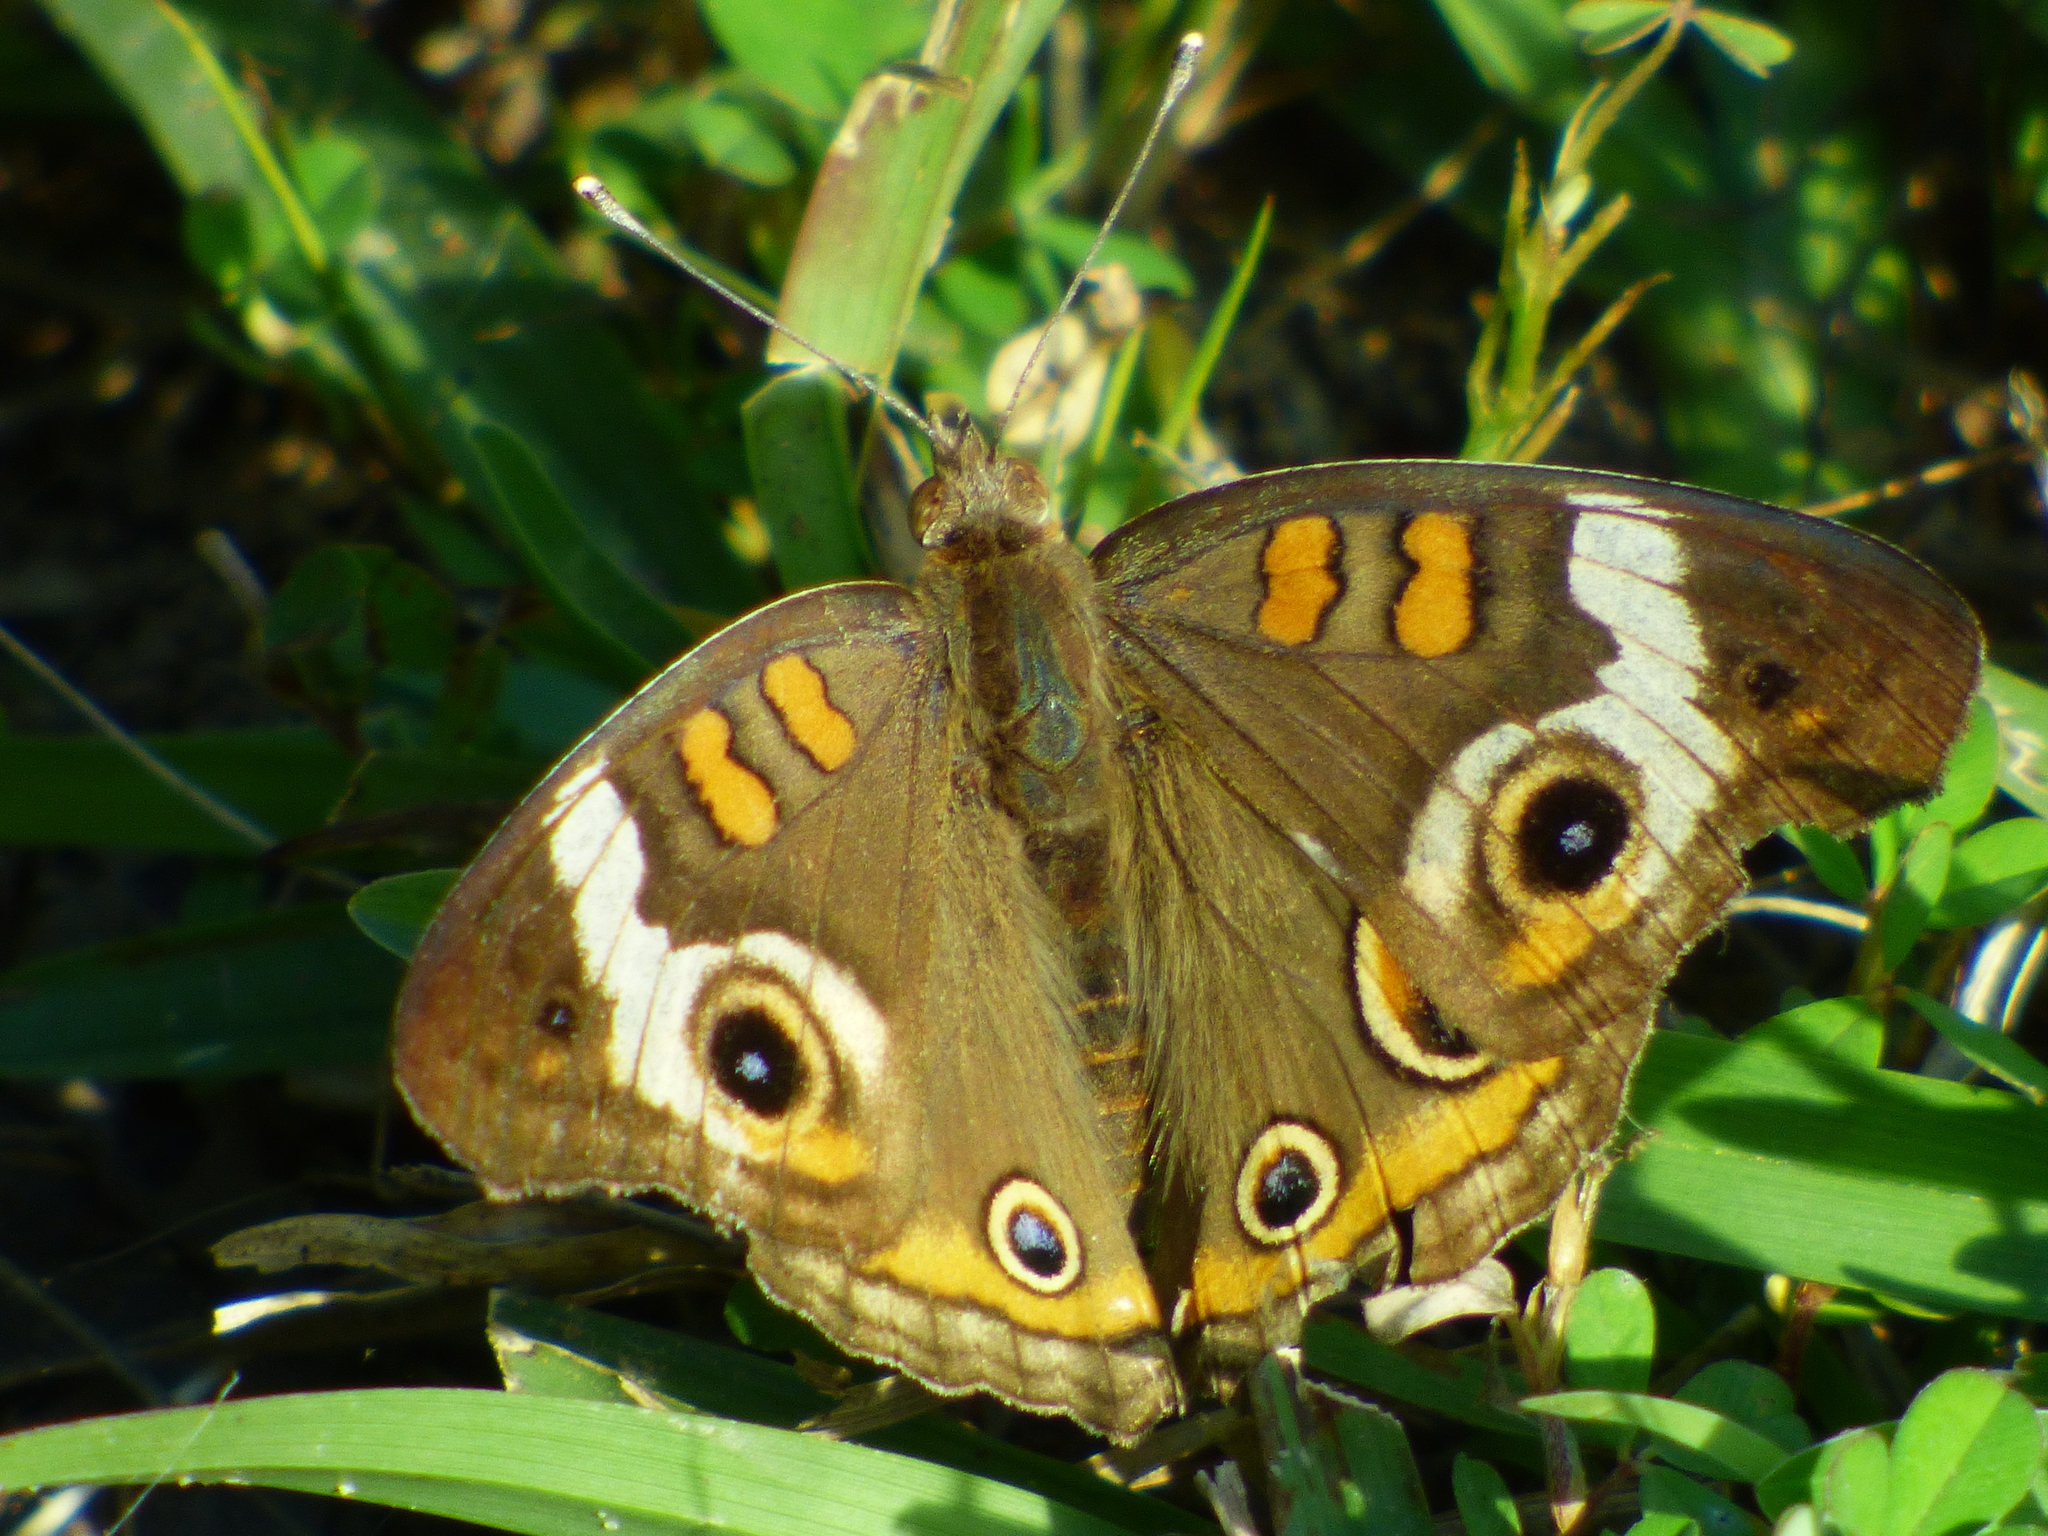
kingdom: Animalia
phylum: Arthropoda
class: Insecta
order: Lepidoptera
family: Nymphalidae
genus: Junonia
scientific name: Junonia coenia
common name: Common buckeye
